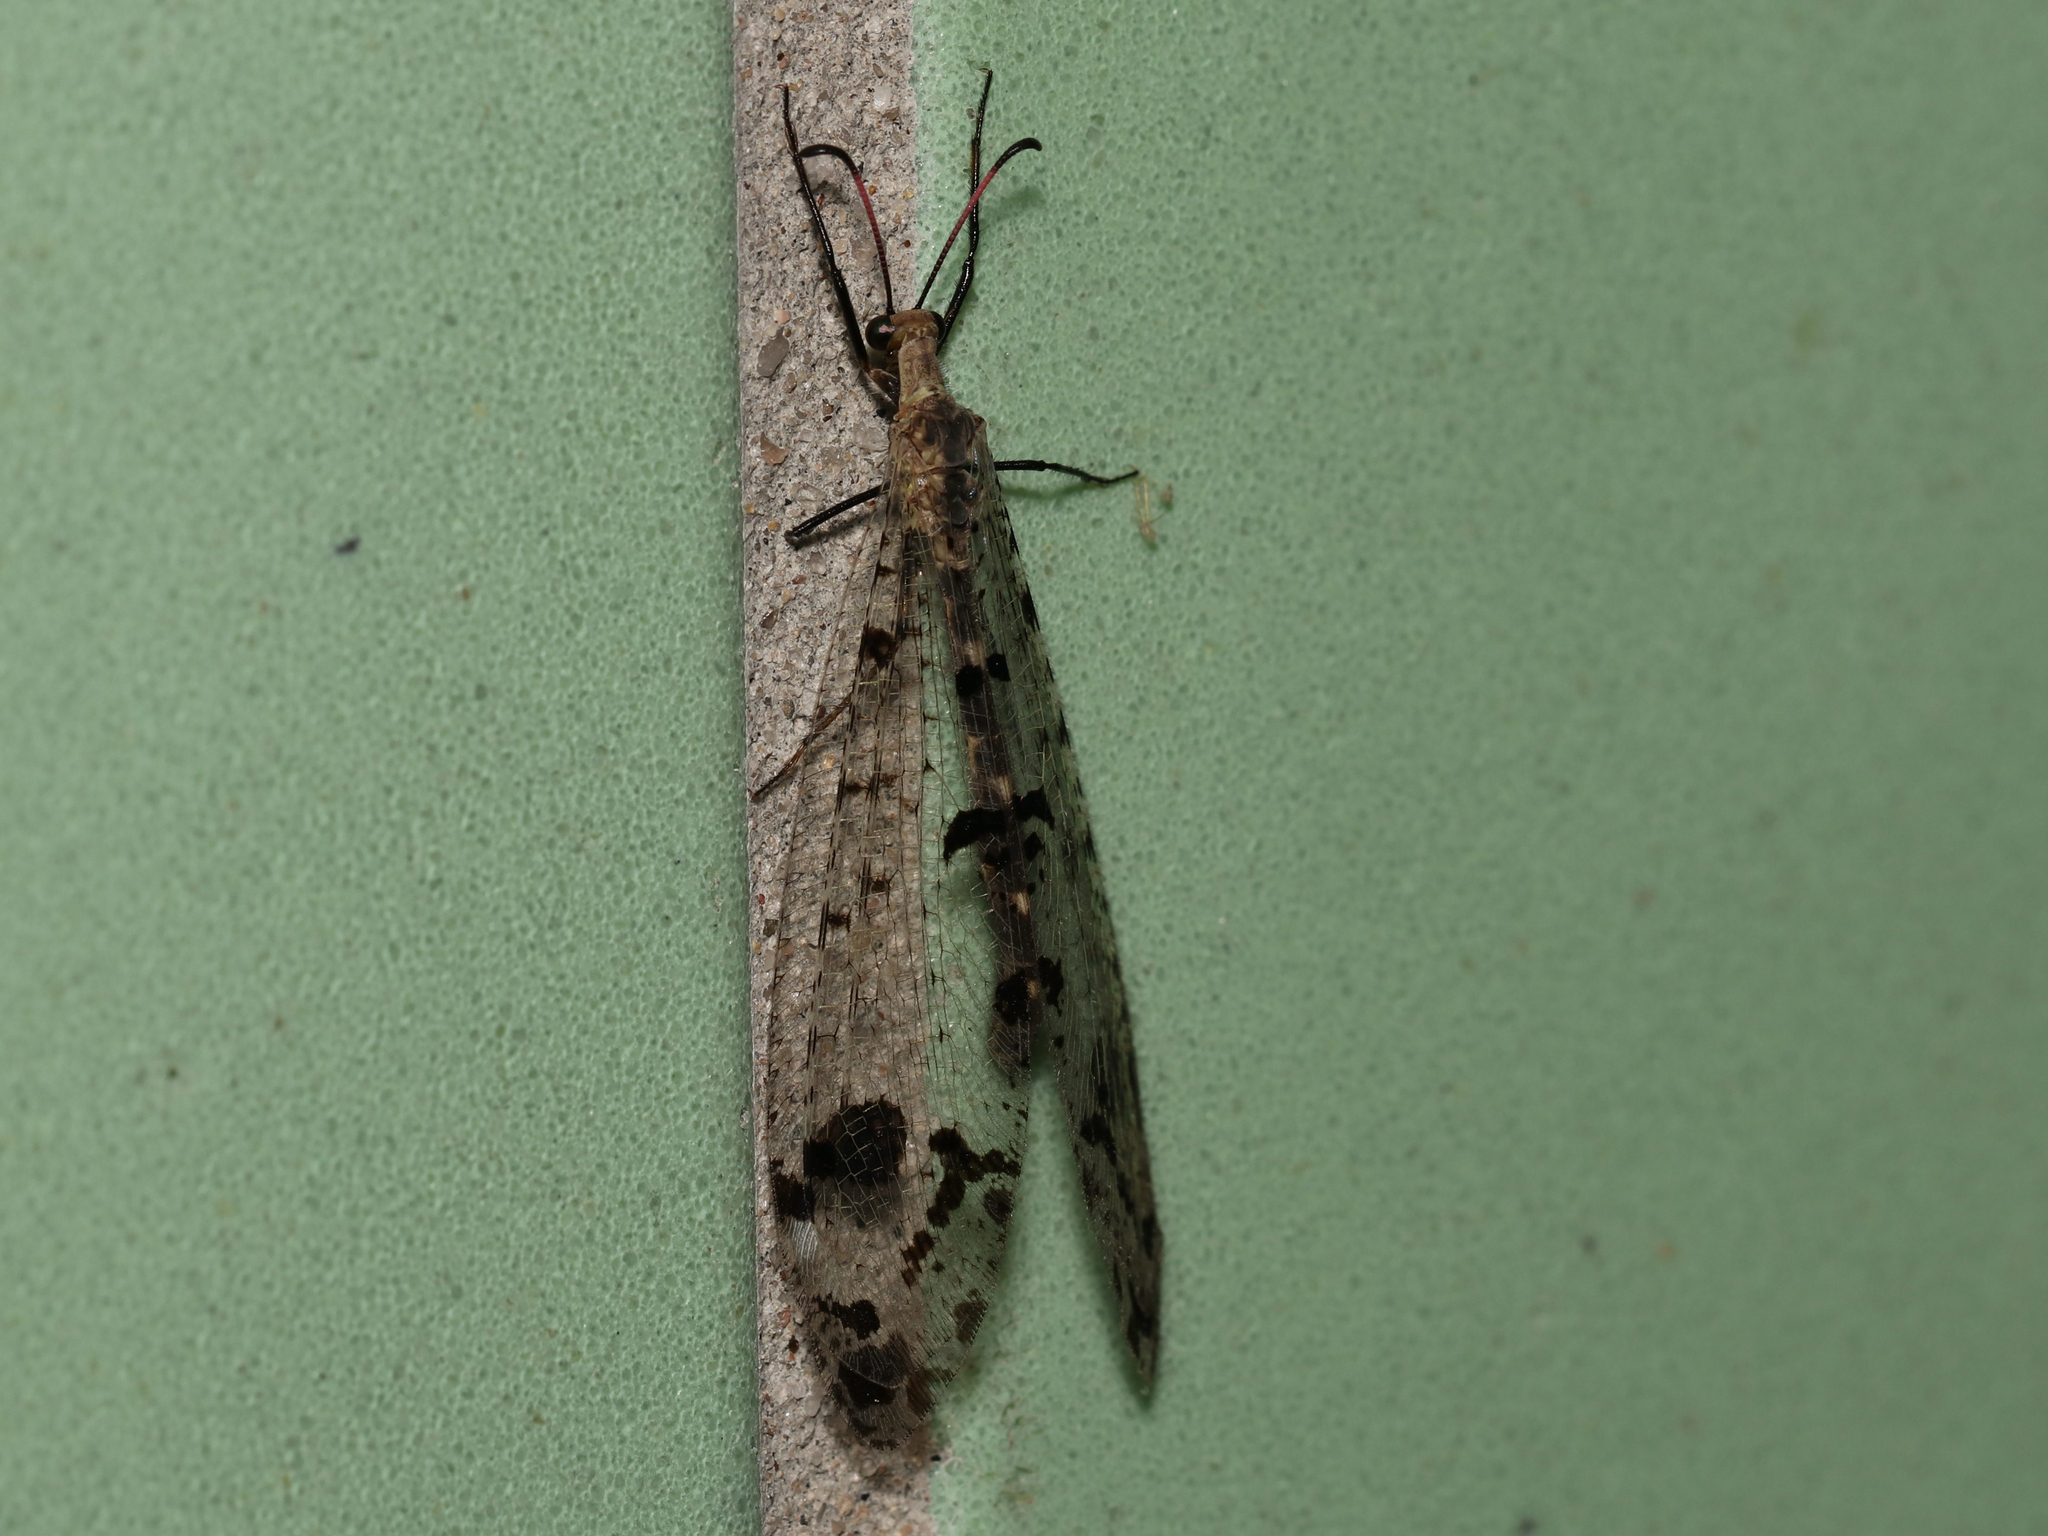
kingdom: Animalia
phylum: Arthropoda
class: Insecta
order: Neuroptera
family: Myrmeleontidae
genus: Dendroleon
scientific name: Dendroleon obsoletus
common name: Eastern spotted-winged antlion
